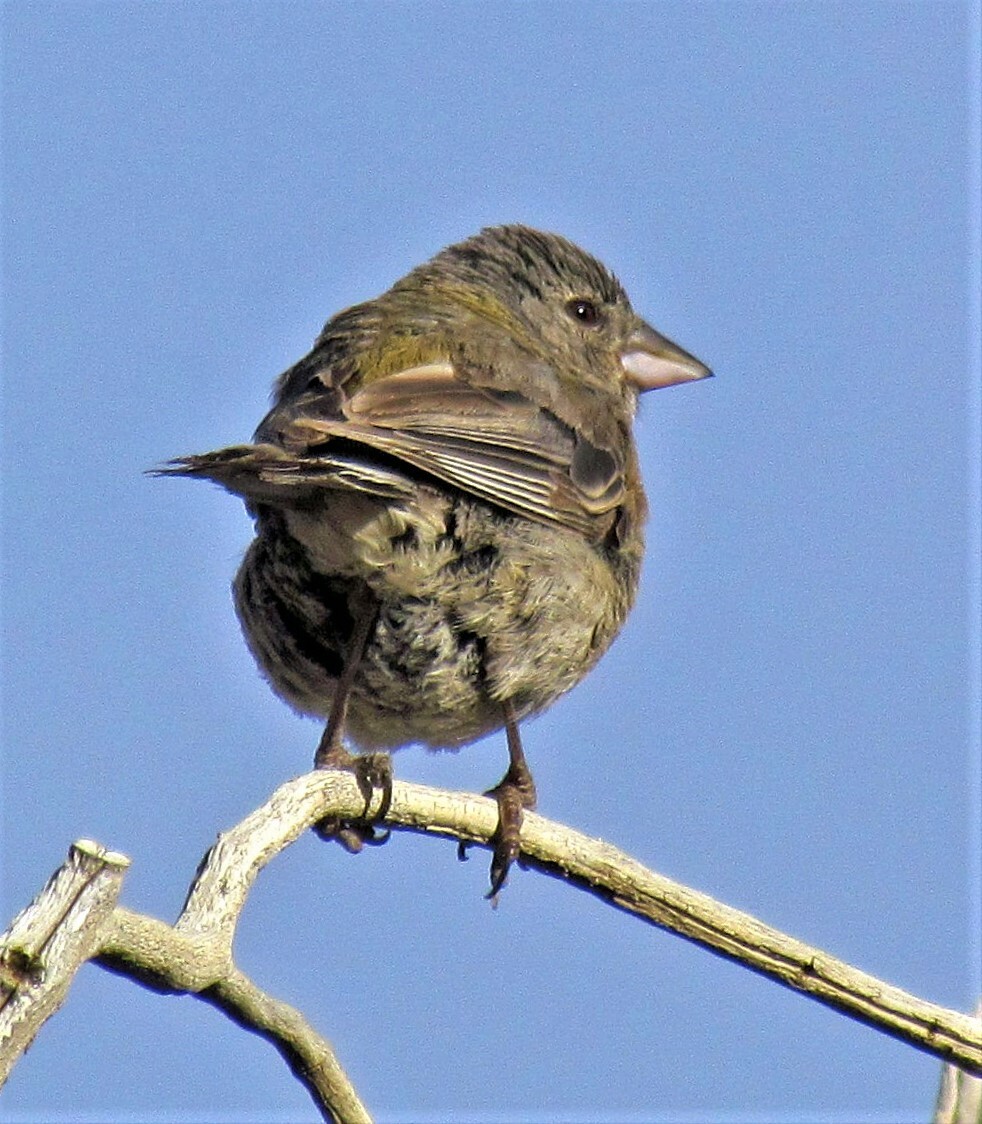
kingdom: Animalia
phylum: Chordata
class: Aves
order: Passeriformes
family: Thraupidae
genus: Phrygilus
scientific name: Phrygilus gayi
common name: Grey-hooded sierra finch
